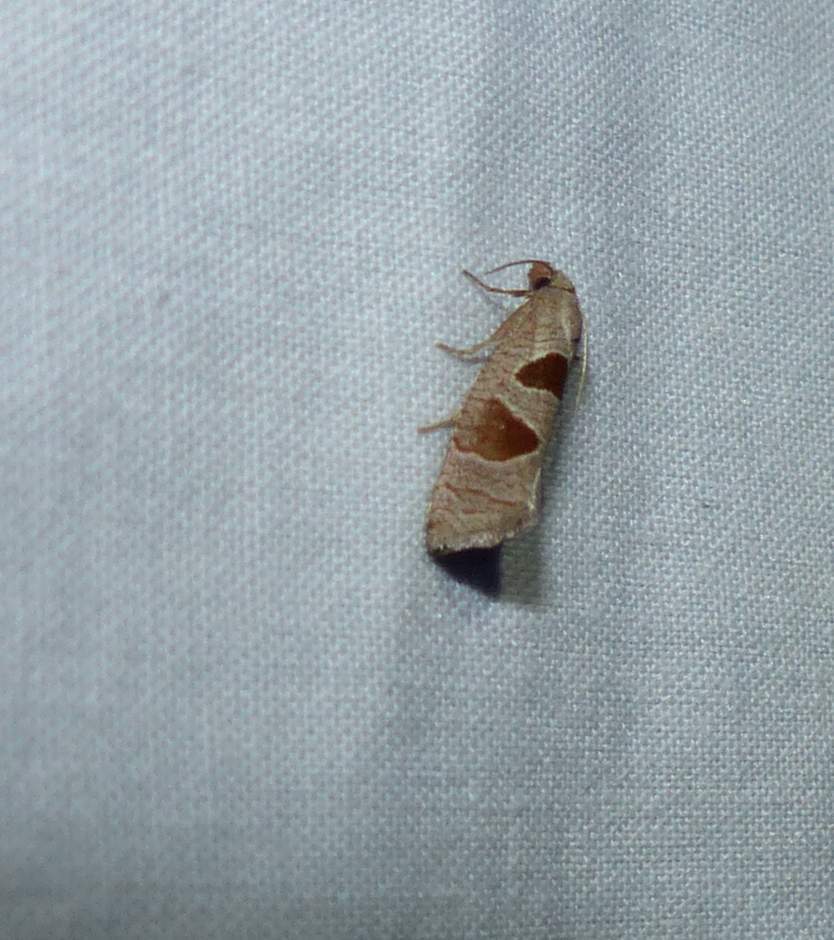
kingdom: Animalia
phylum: Arthropoda
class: Insecta
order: Lepidoptera
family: Tortricidae
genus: Pelochrista
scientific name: Pelochrista dorsisignatana
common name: Triangle-backed pelochrista moth
